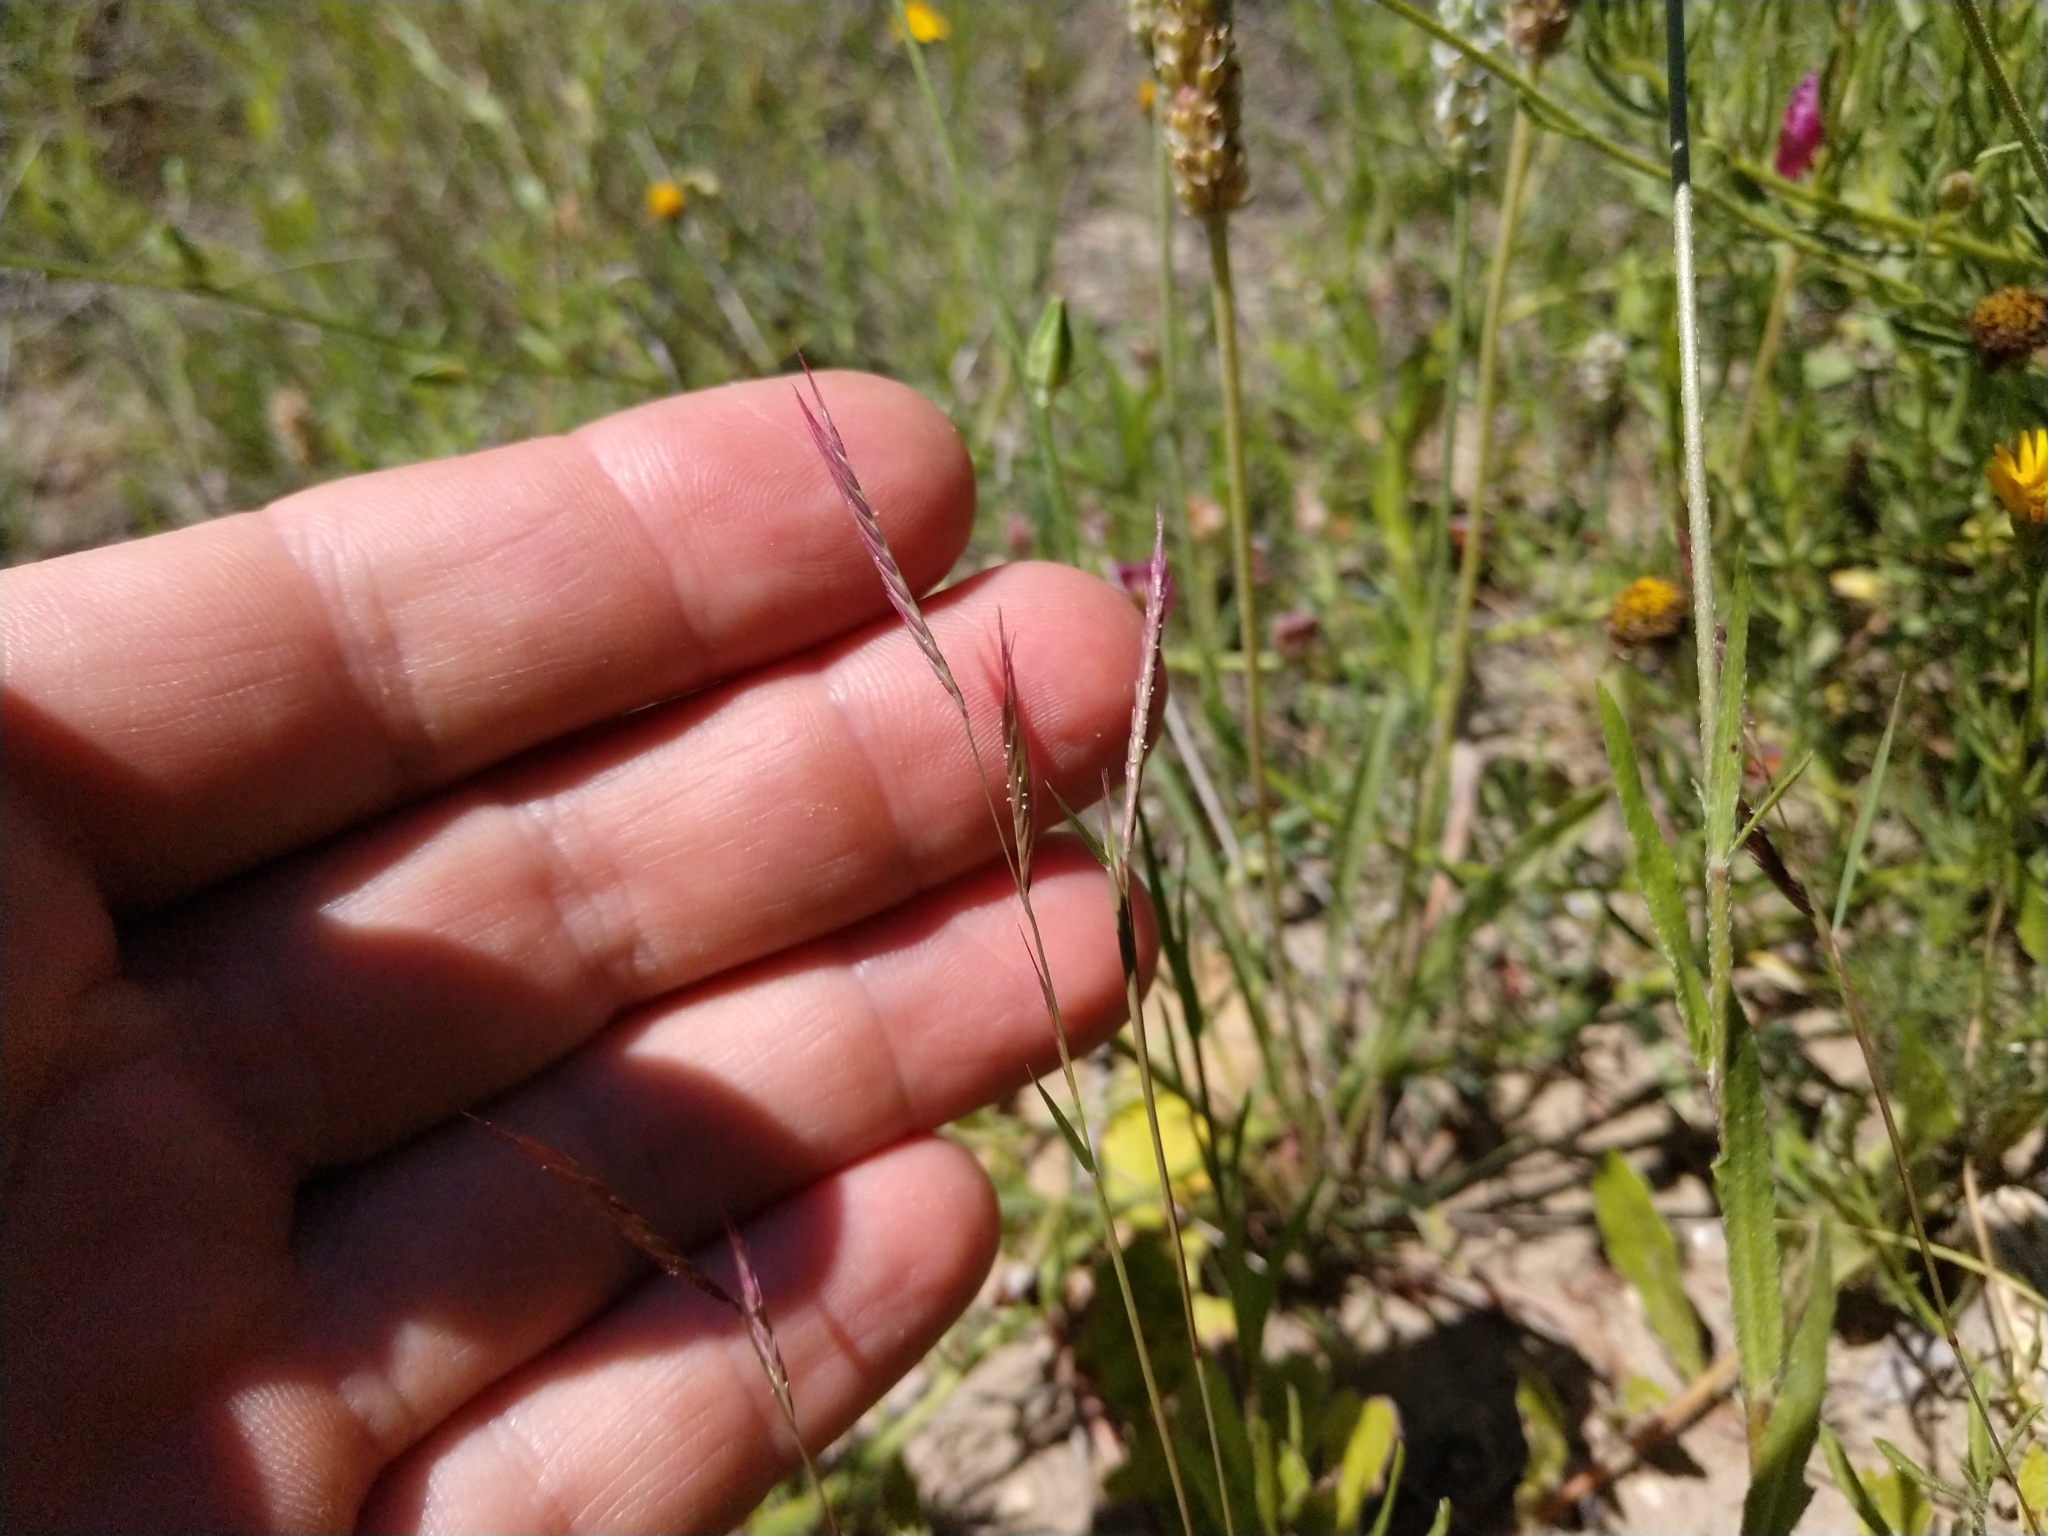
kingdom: Plantae
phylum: Tracheophyta
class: Liliopsida
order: Poales
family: Poaceae
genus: Bouteloua
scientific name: Bouteloua trifida
